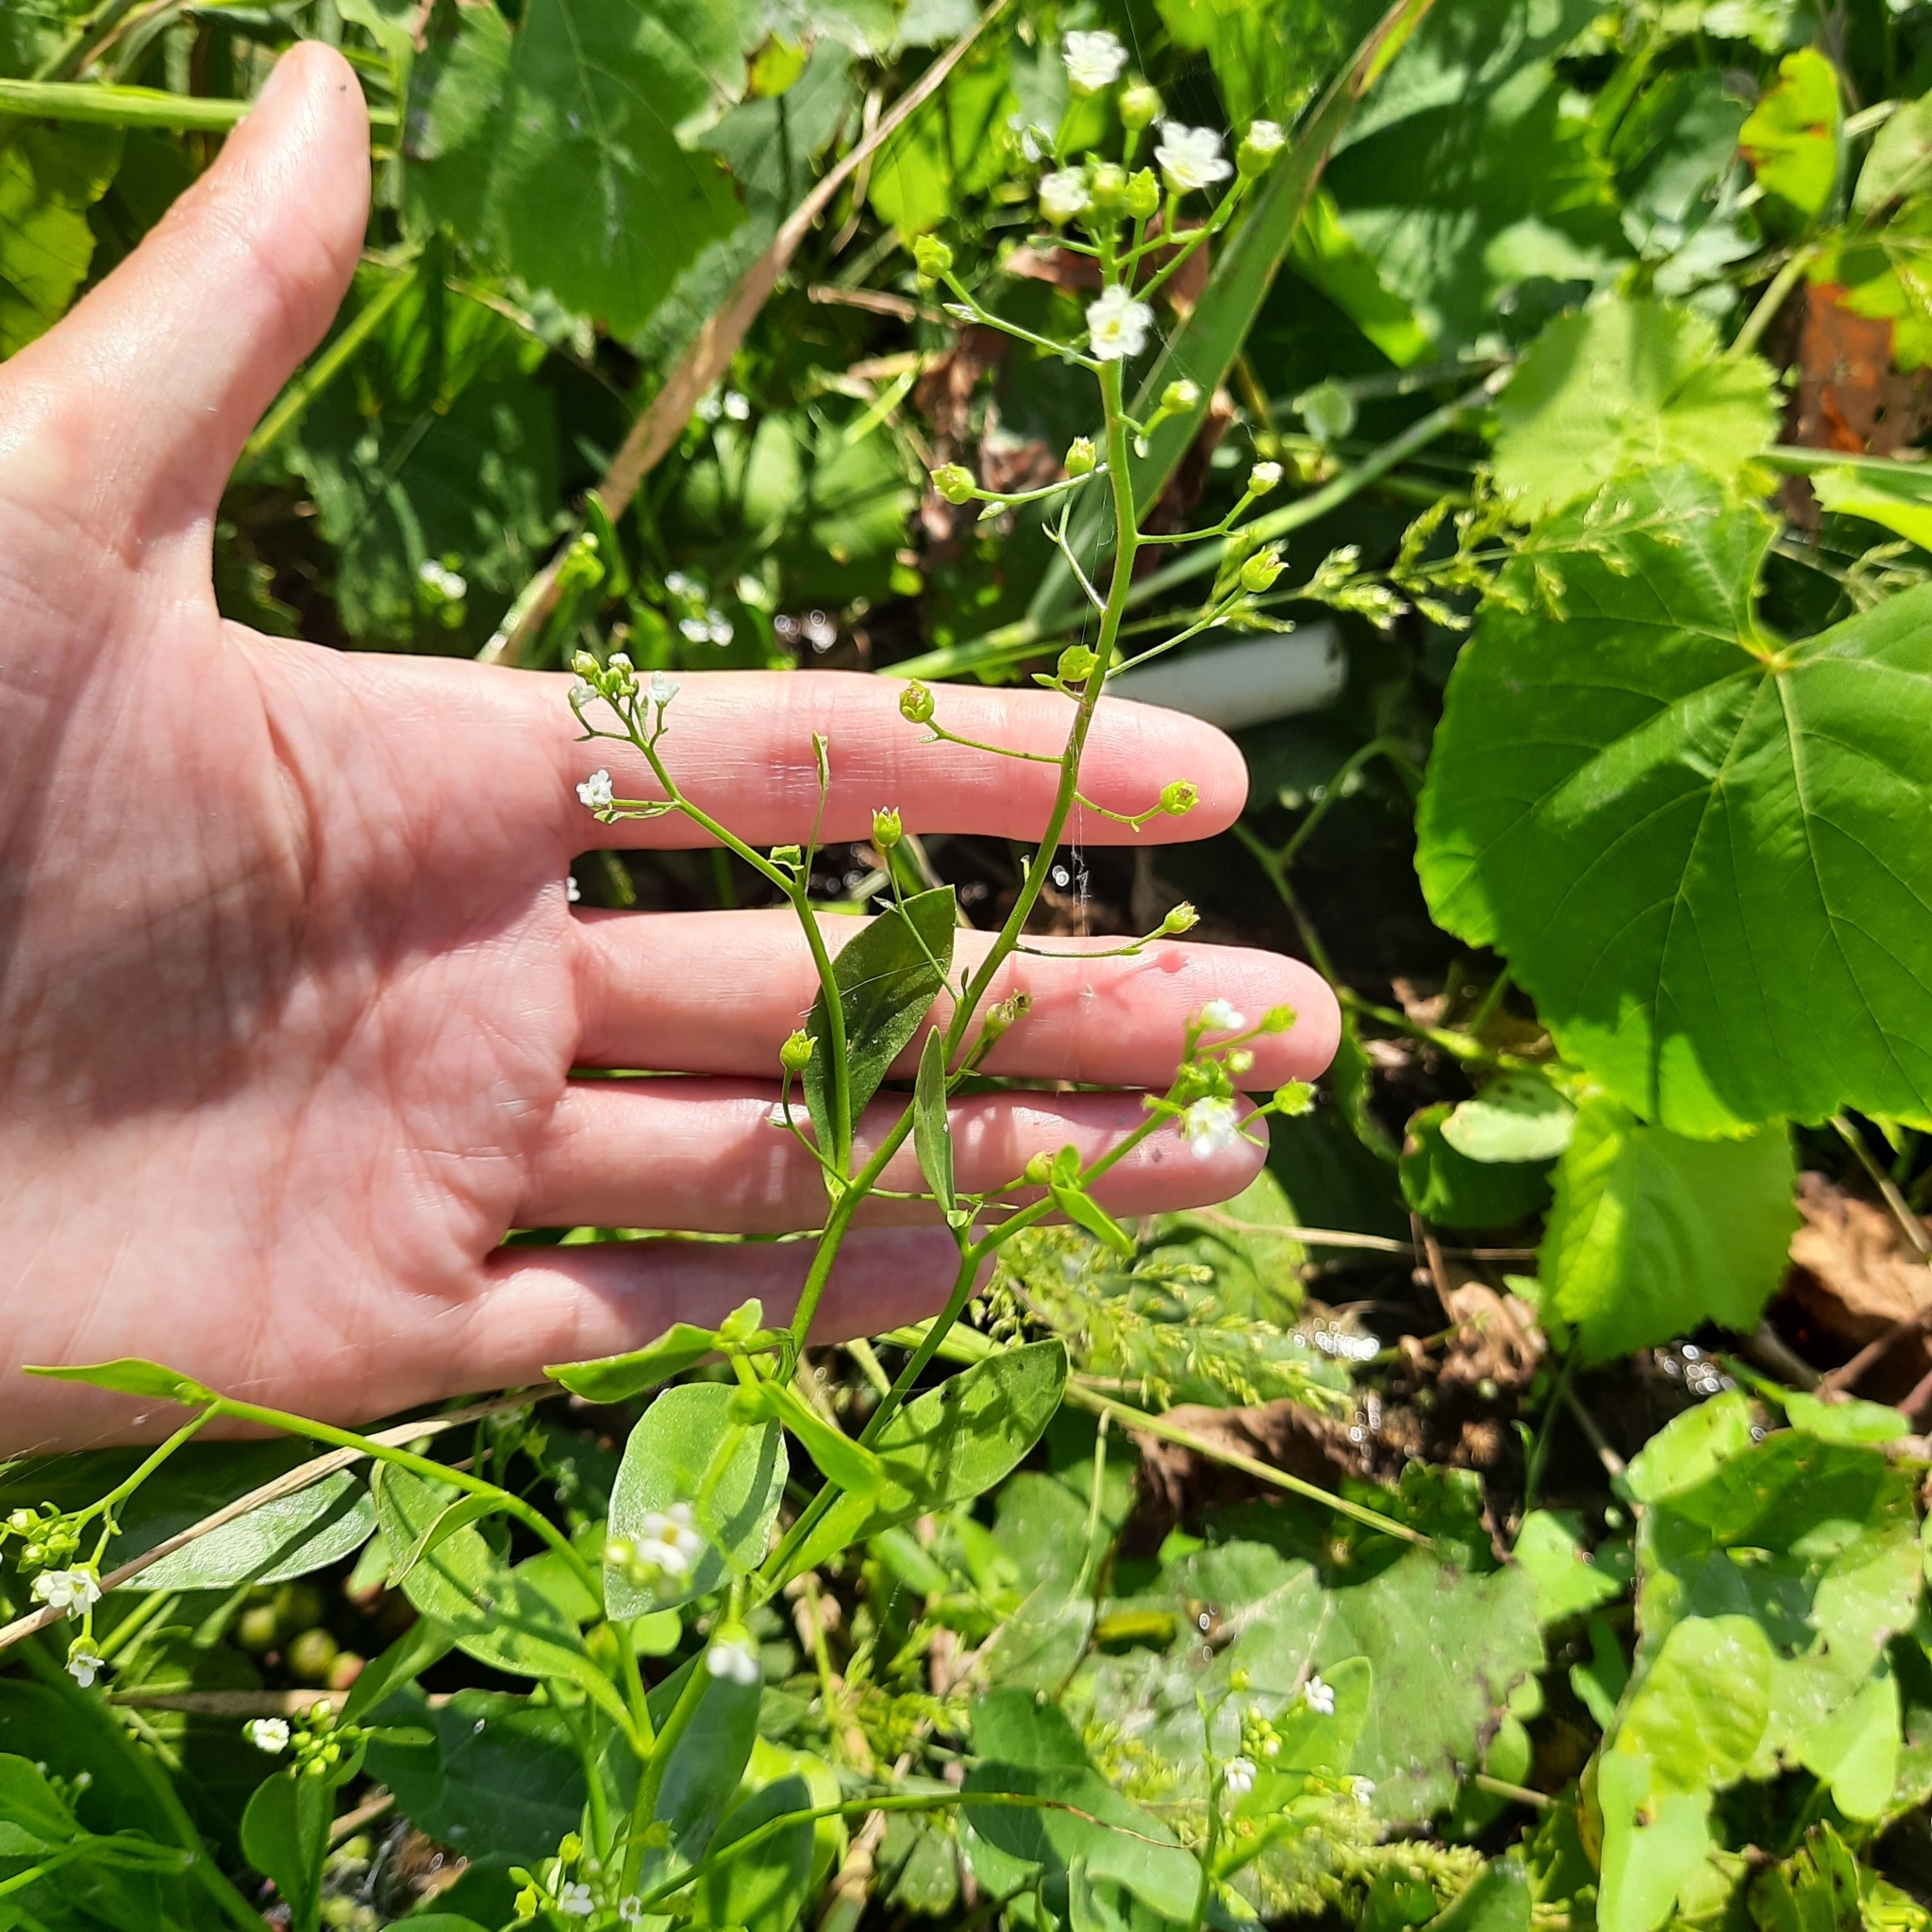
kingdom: Plantae
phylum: Tracheophyta
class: Magnoliopsida
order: Ericales
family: Primulaceae
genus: Samolus
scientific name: Samolus valerandi
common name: Brookweed
